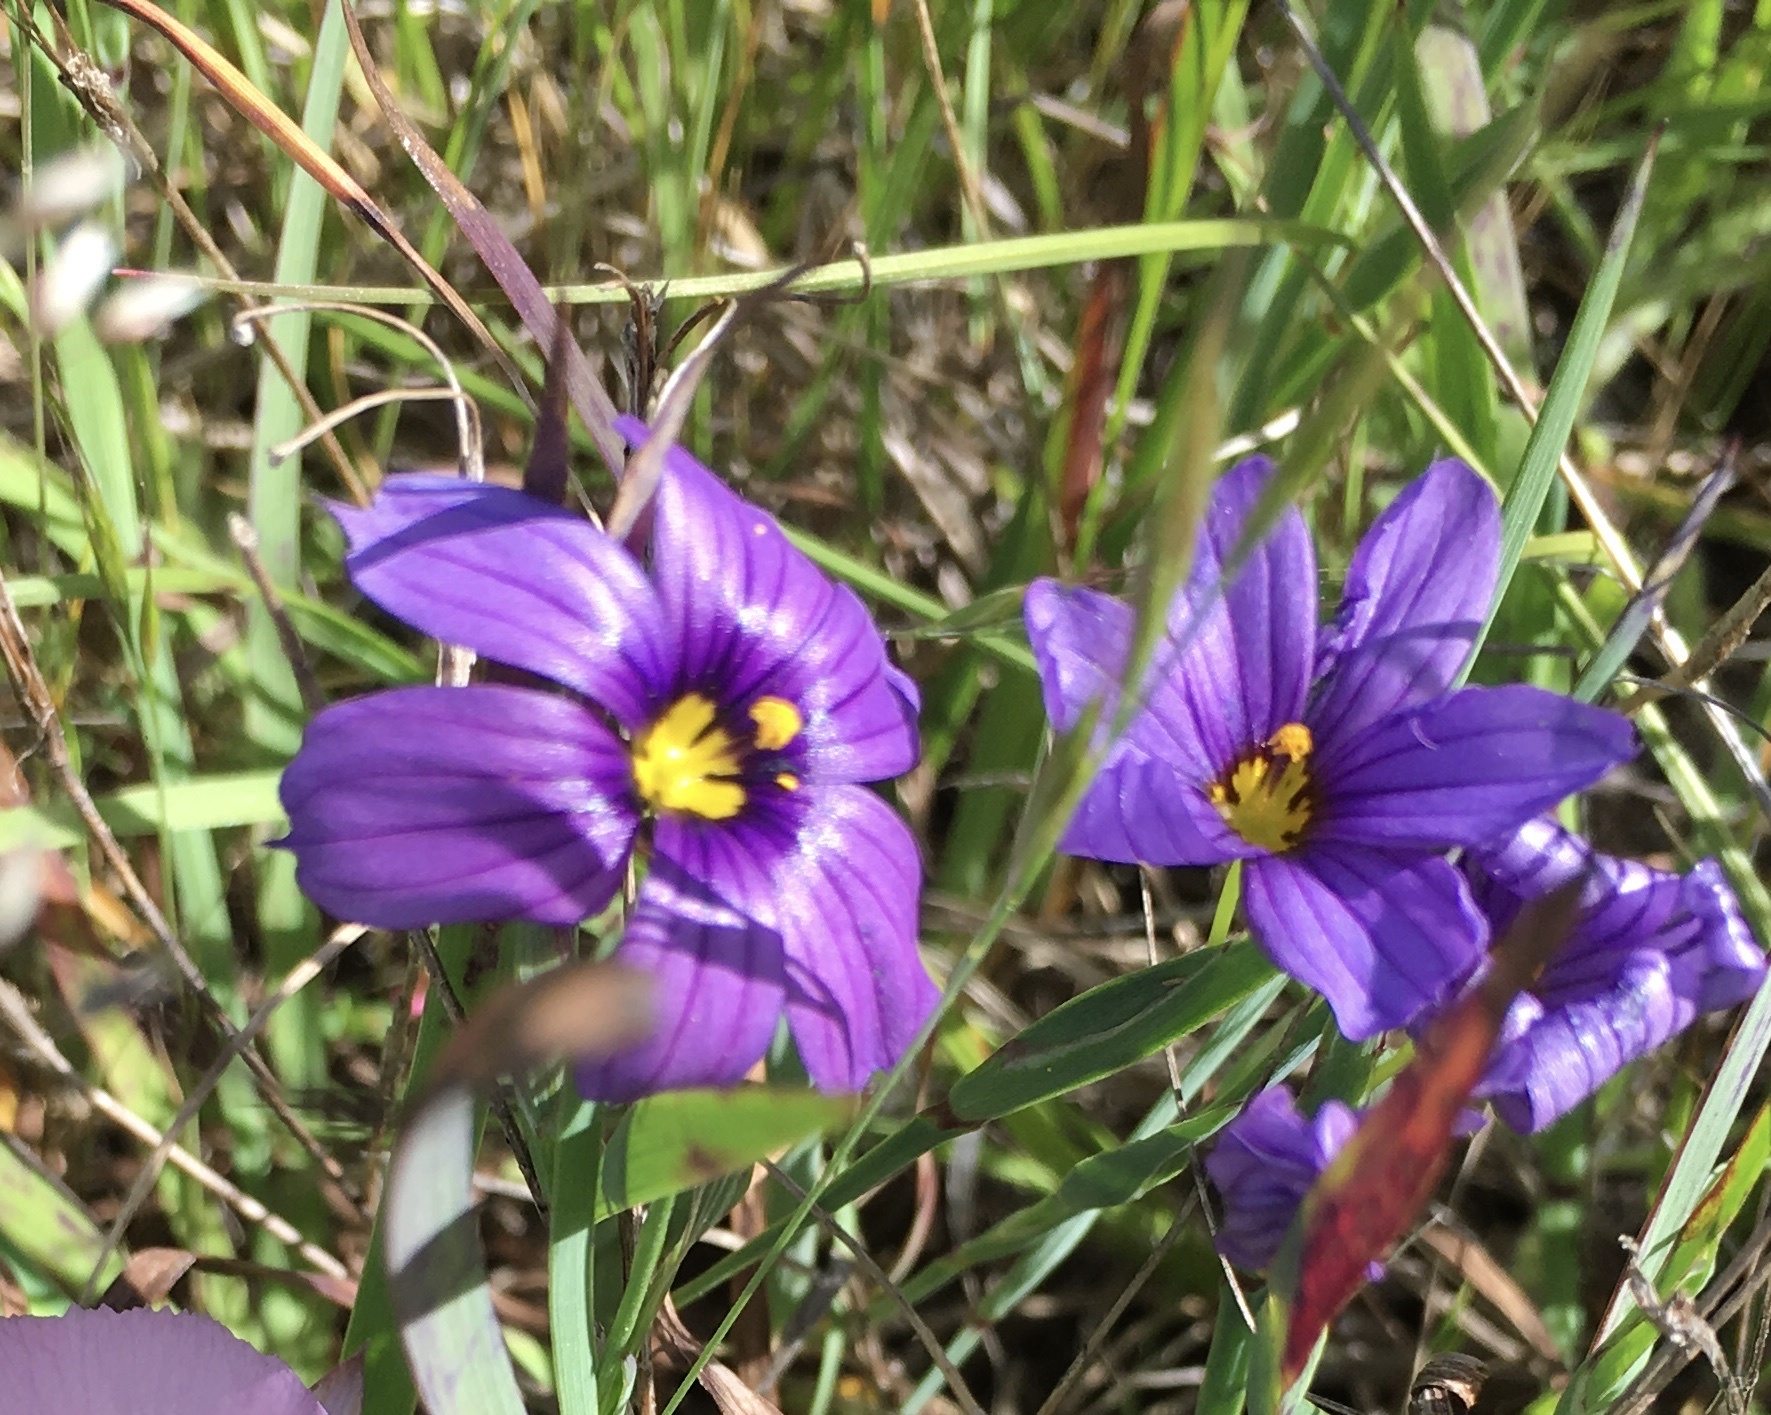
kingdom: Plantae
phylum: Tracheophyta
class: Liliopsida
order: Asparagales
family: Iridaceae
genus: Sisyrinchium
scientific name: Sisyrinchium bellum
